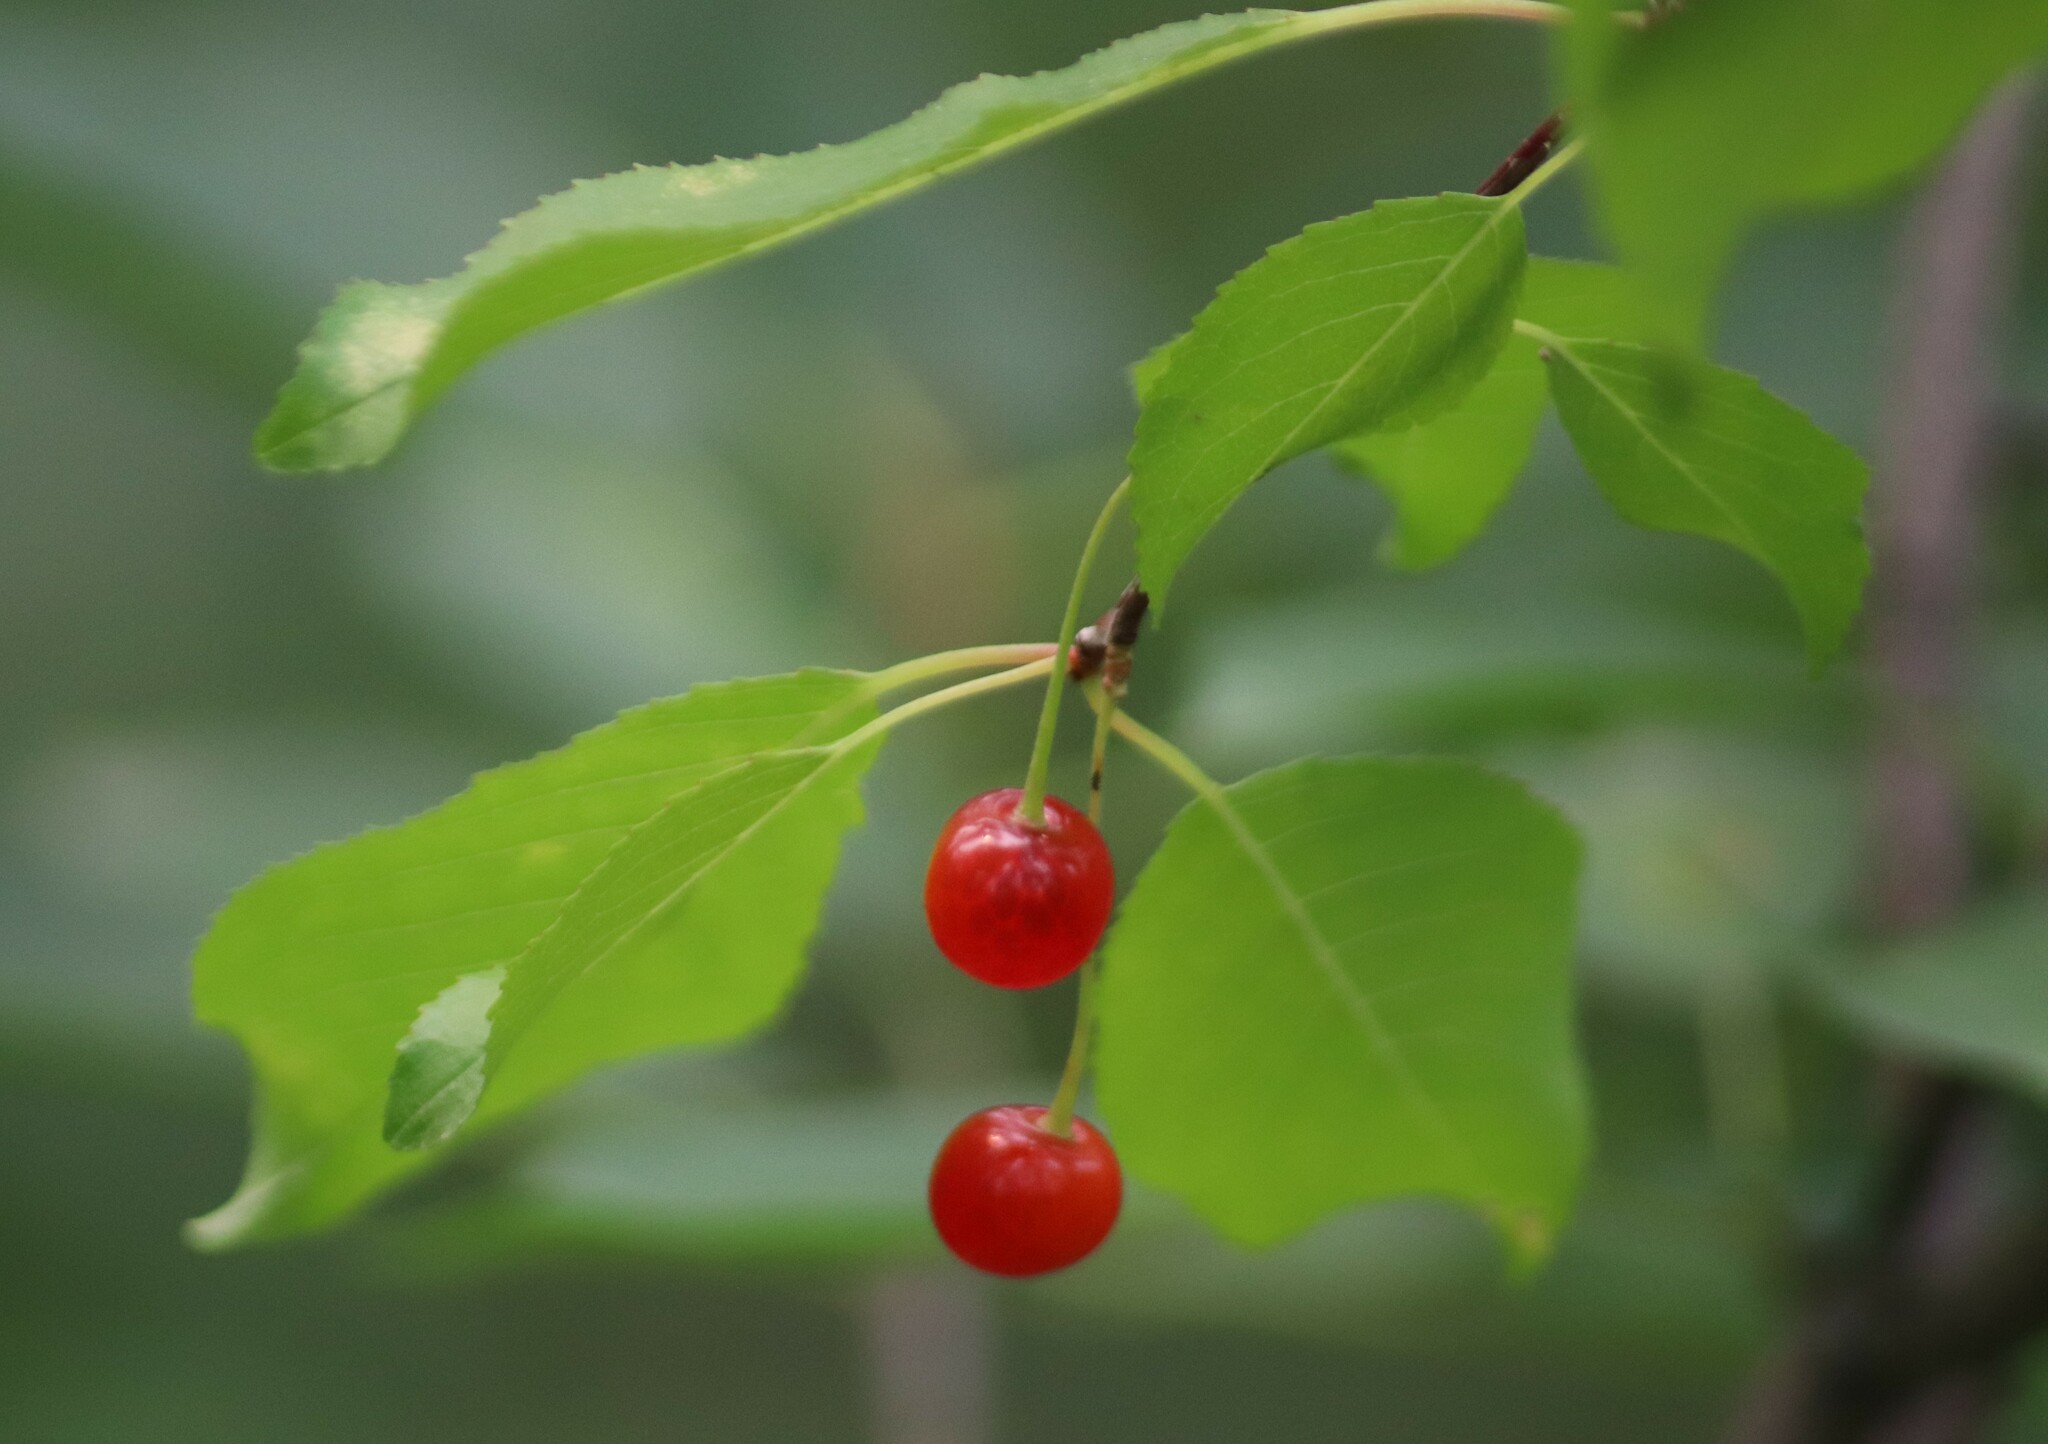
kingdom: Plantae
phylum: Tracheophyta
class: Magnoliopsida
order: Rosales
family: Rosaceae
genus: Prunus
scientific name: Prunus pensylvanica
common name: Pin cherry
